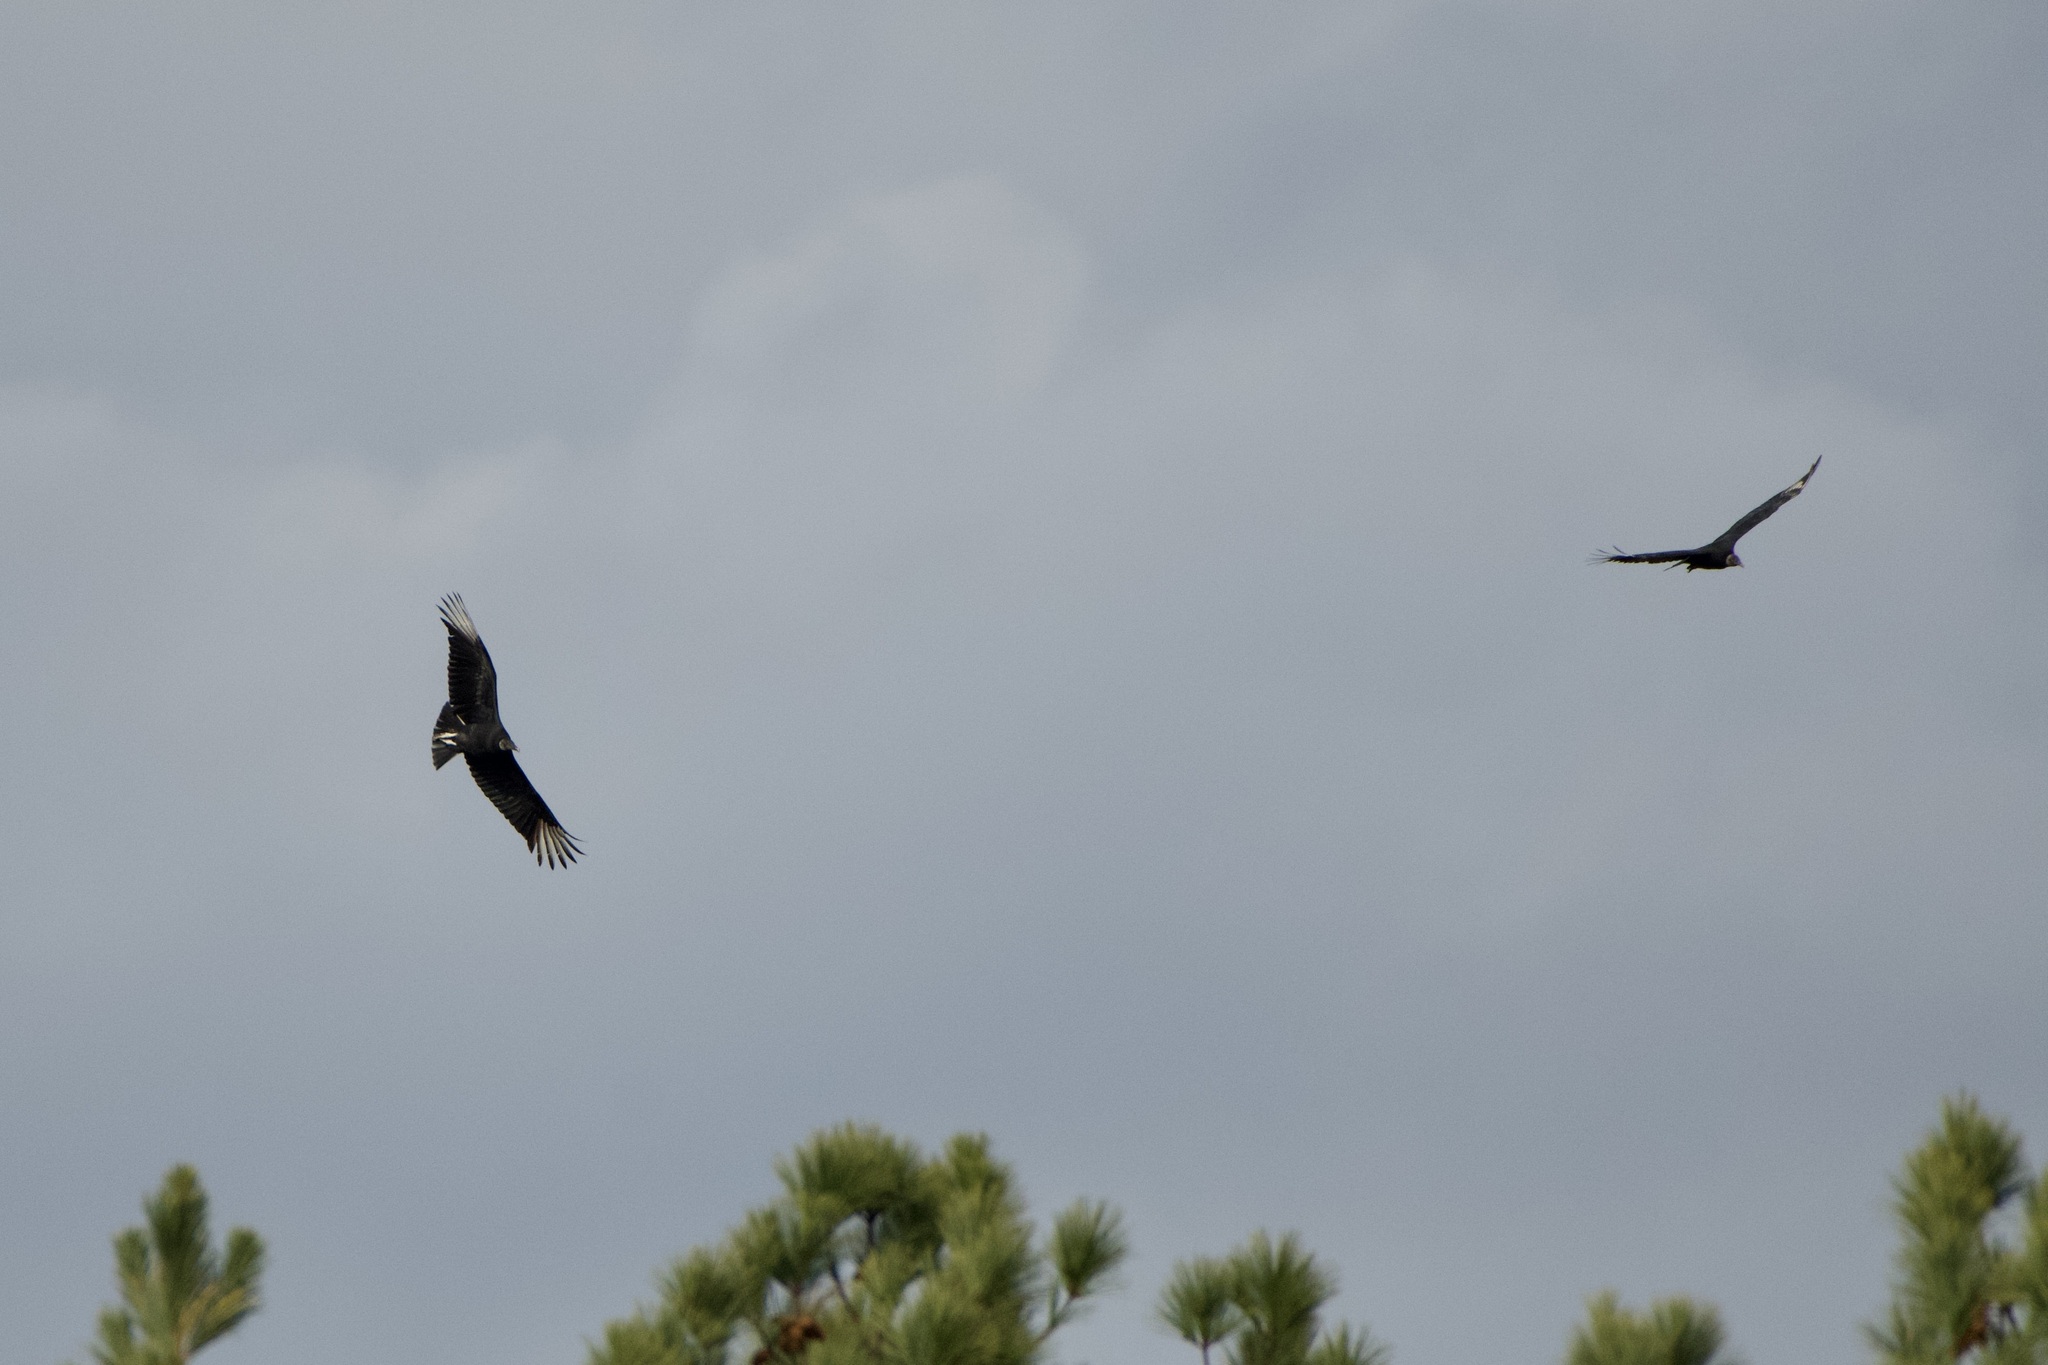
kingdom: Animalia
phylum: Chordata
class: Aves
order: Accipitriformes
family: Cathartidae
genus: Coragyps
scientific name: Coragyps atratus
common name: Black vulture
